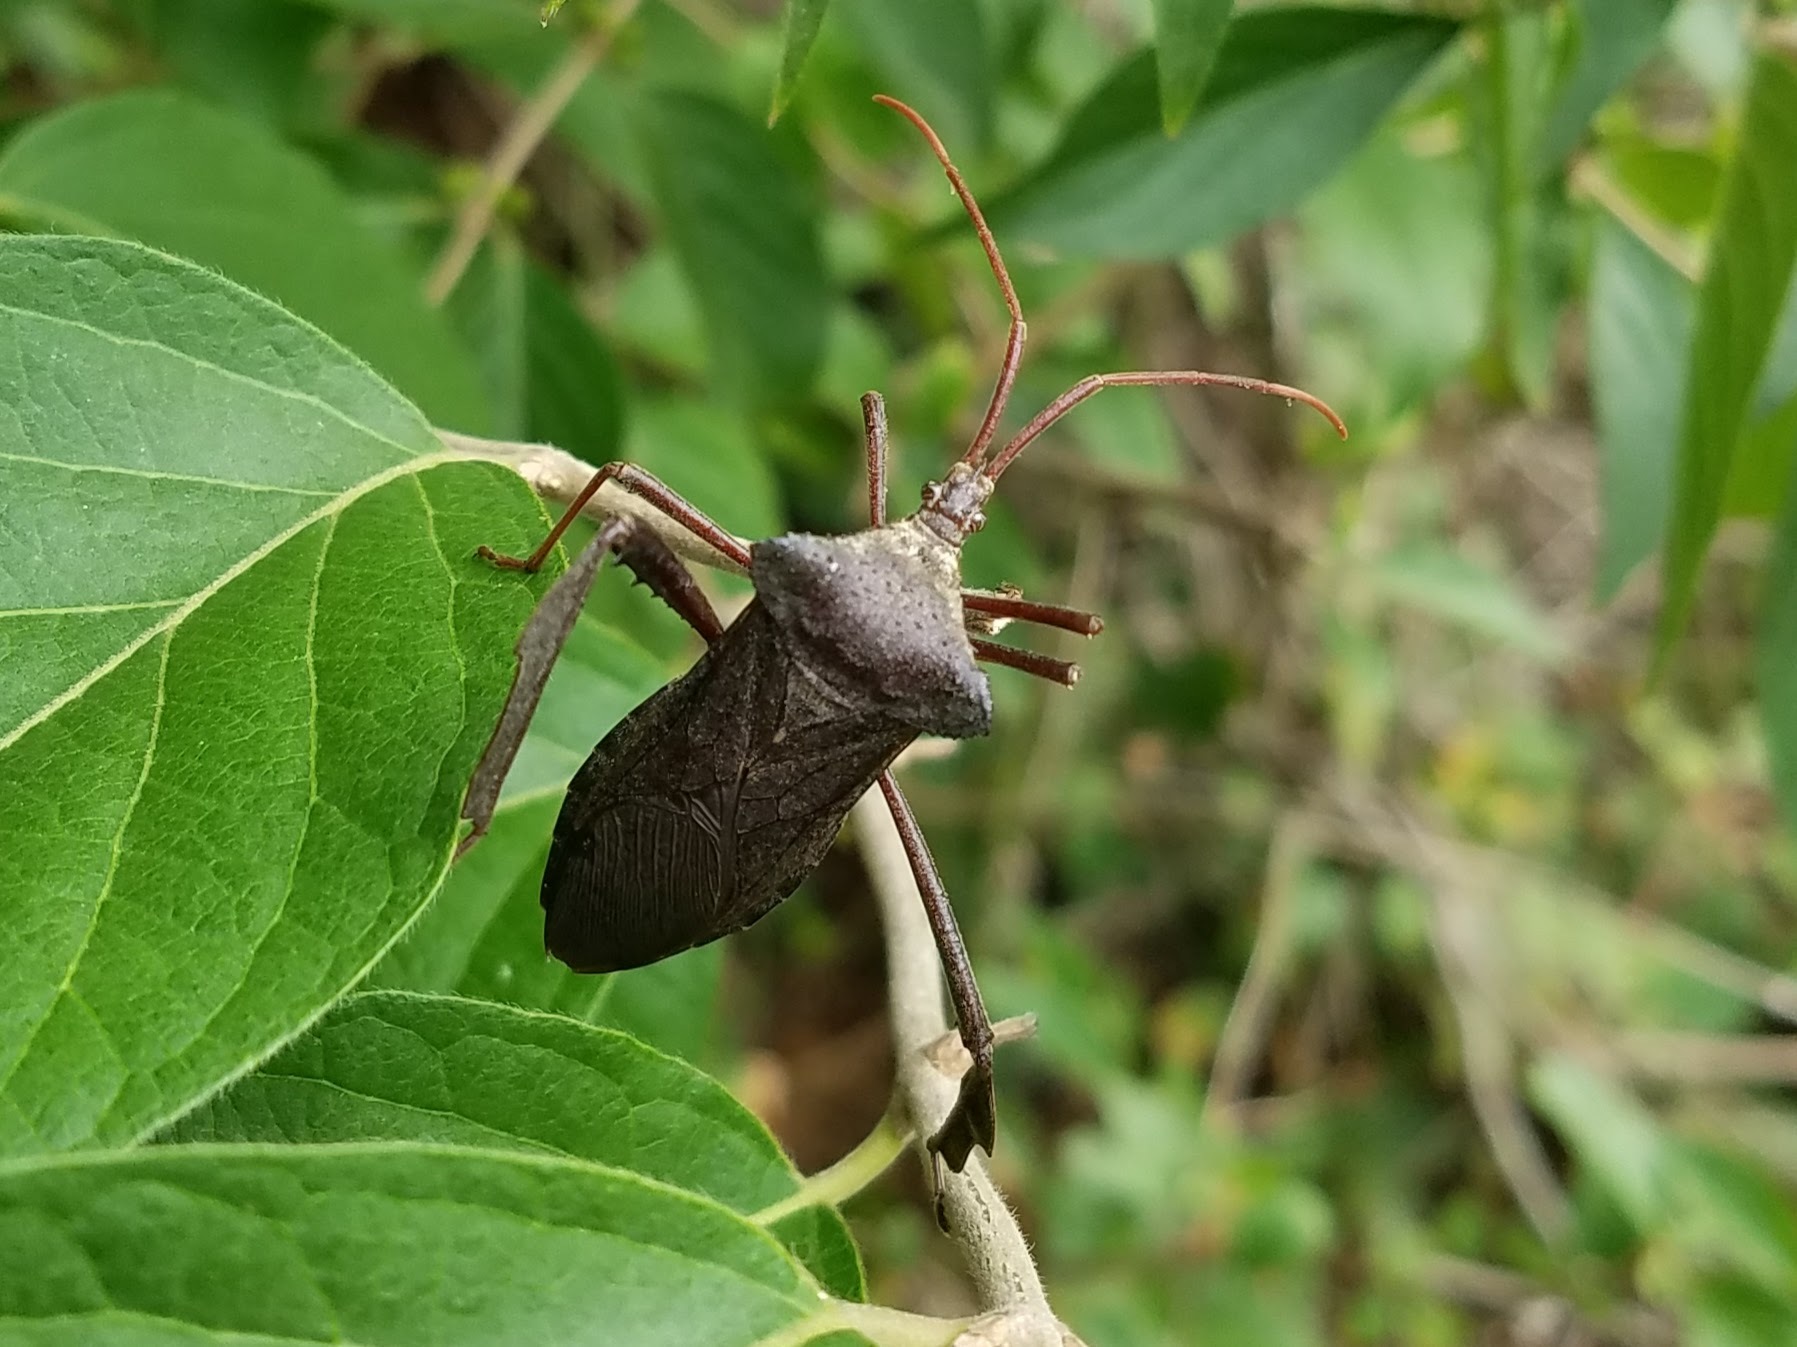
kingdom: Animalia
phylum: Arthropoda
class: Insecta
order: Hemiptera
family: Coreidae
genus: Acanthocephala
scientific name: Acanthocephala declivis
